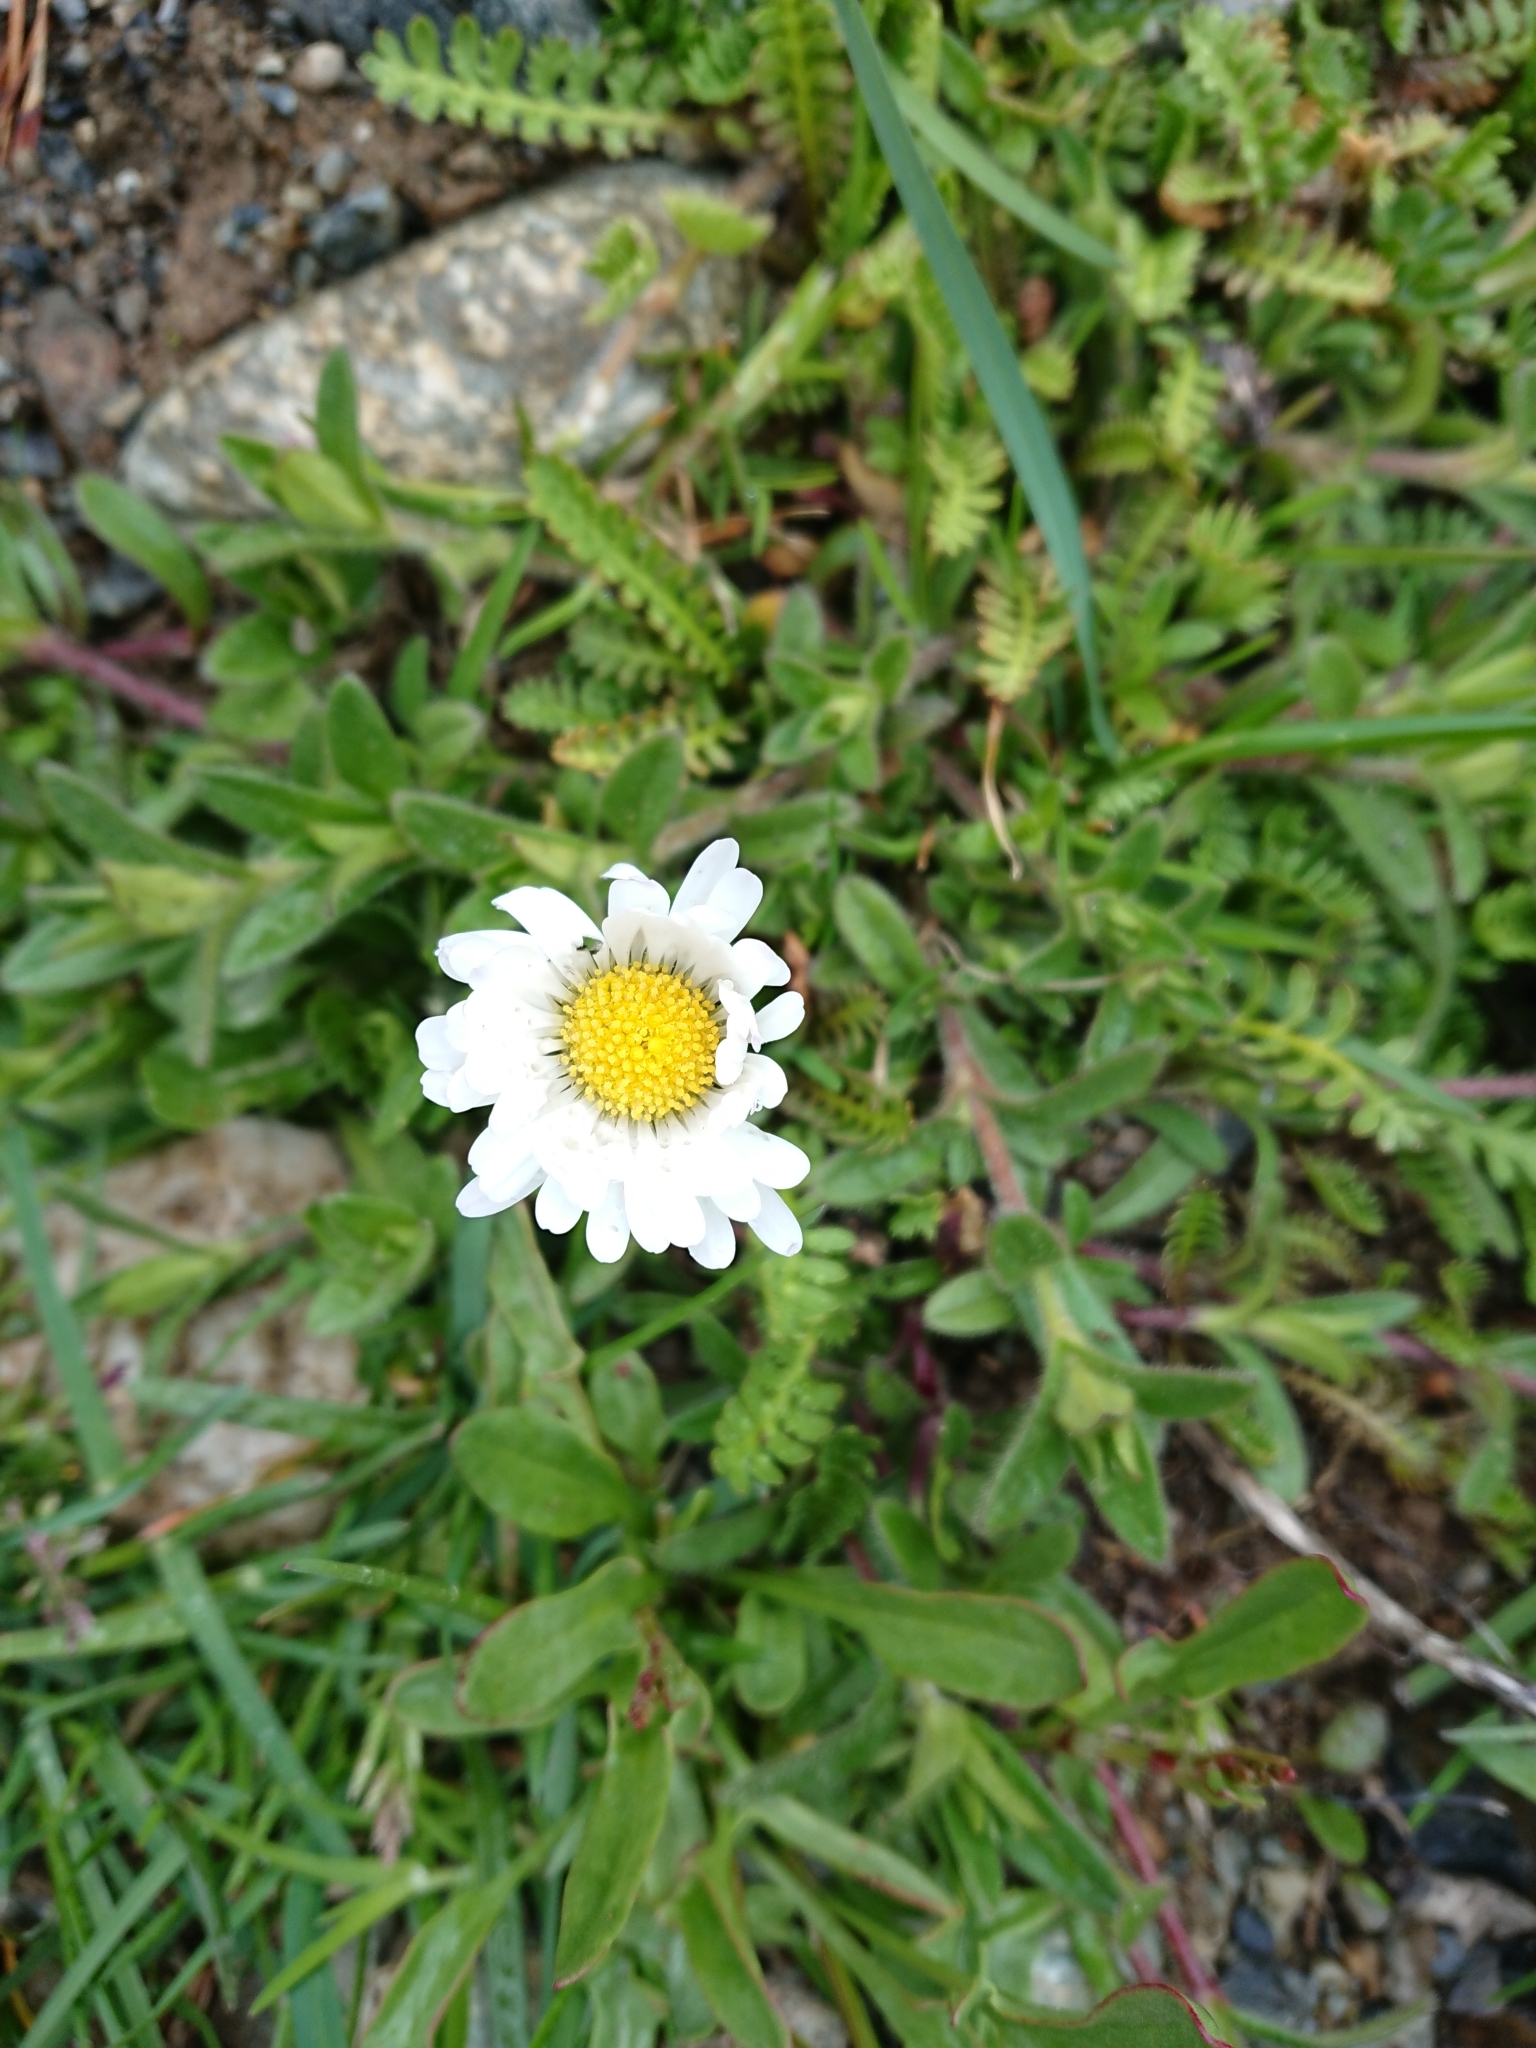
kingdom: Plantae
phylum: Tracheophyta
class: Magnoliopsida
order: Asterales
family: Asteraceae
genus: Leucanthemum
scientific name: Leucanthemum vulgare
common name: Oxeye daisy
